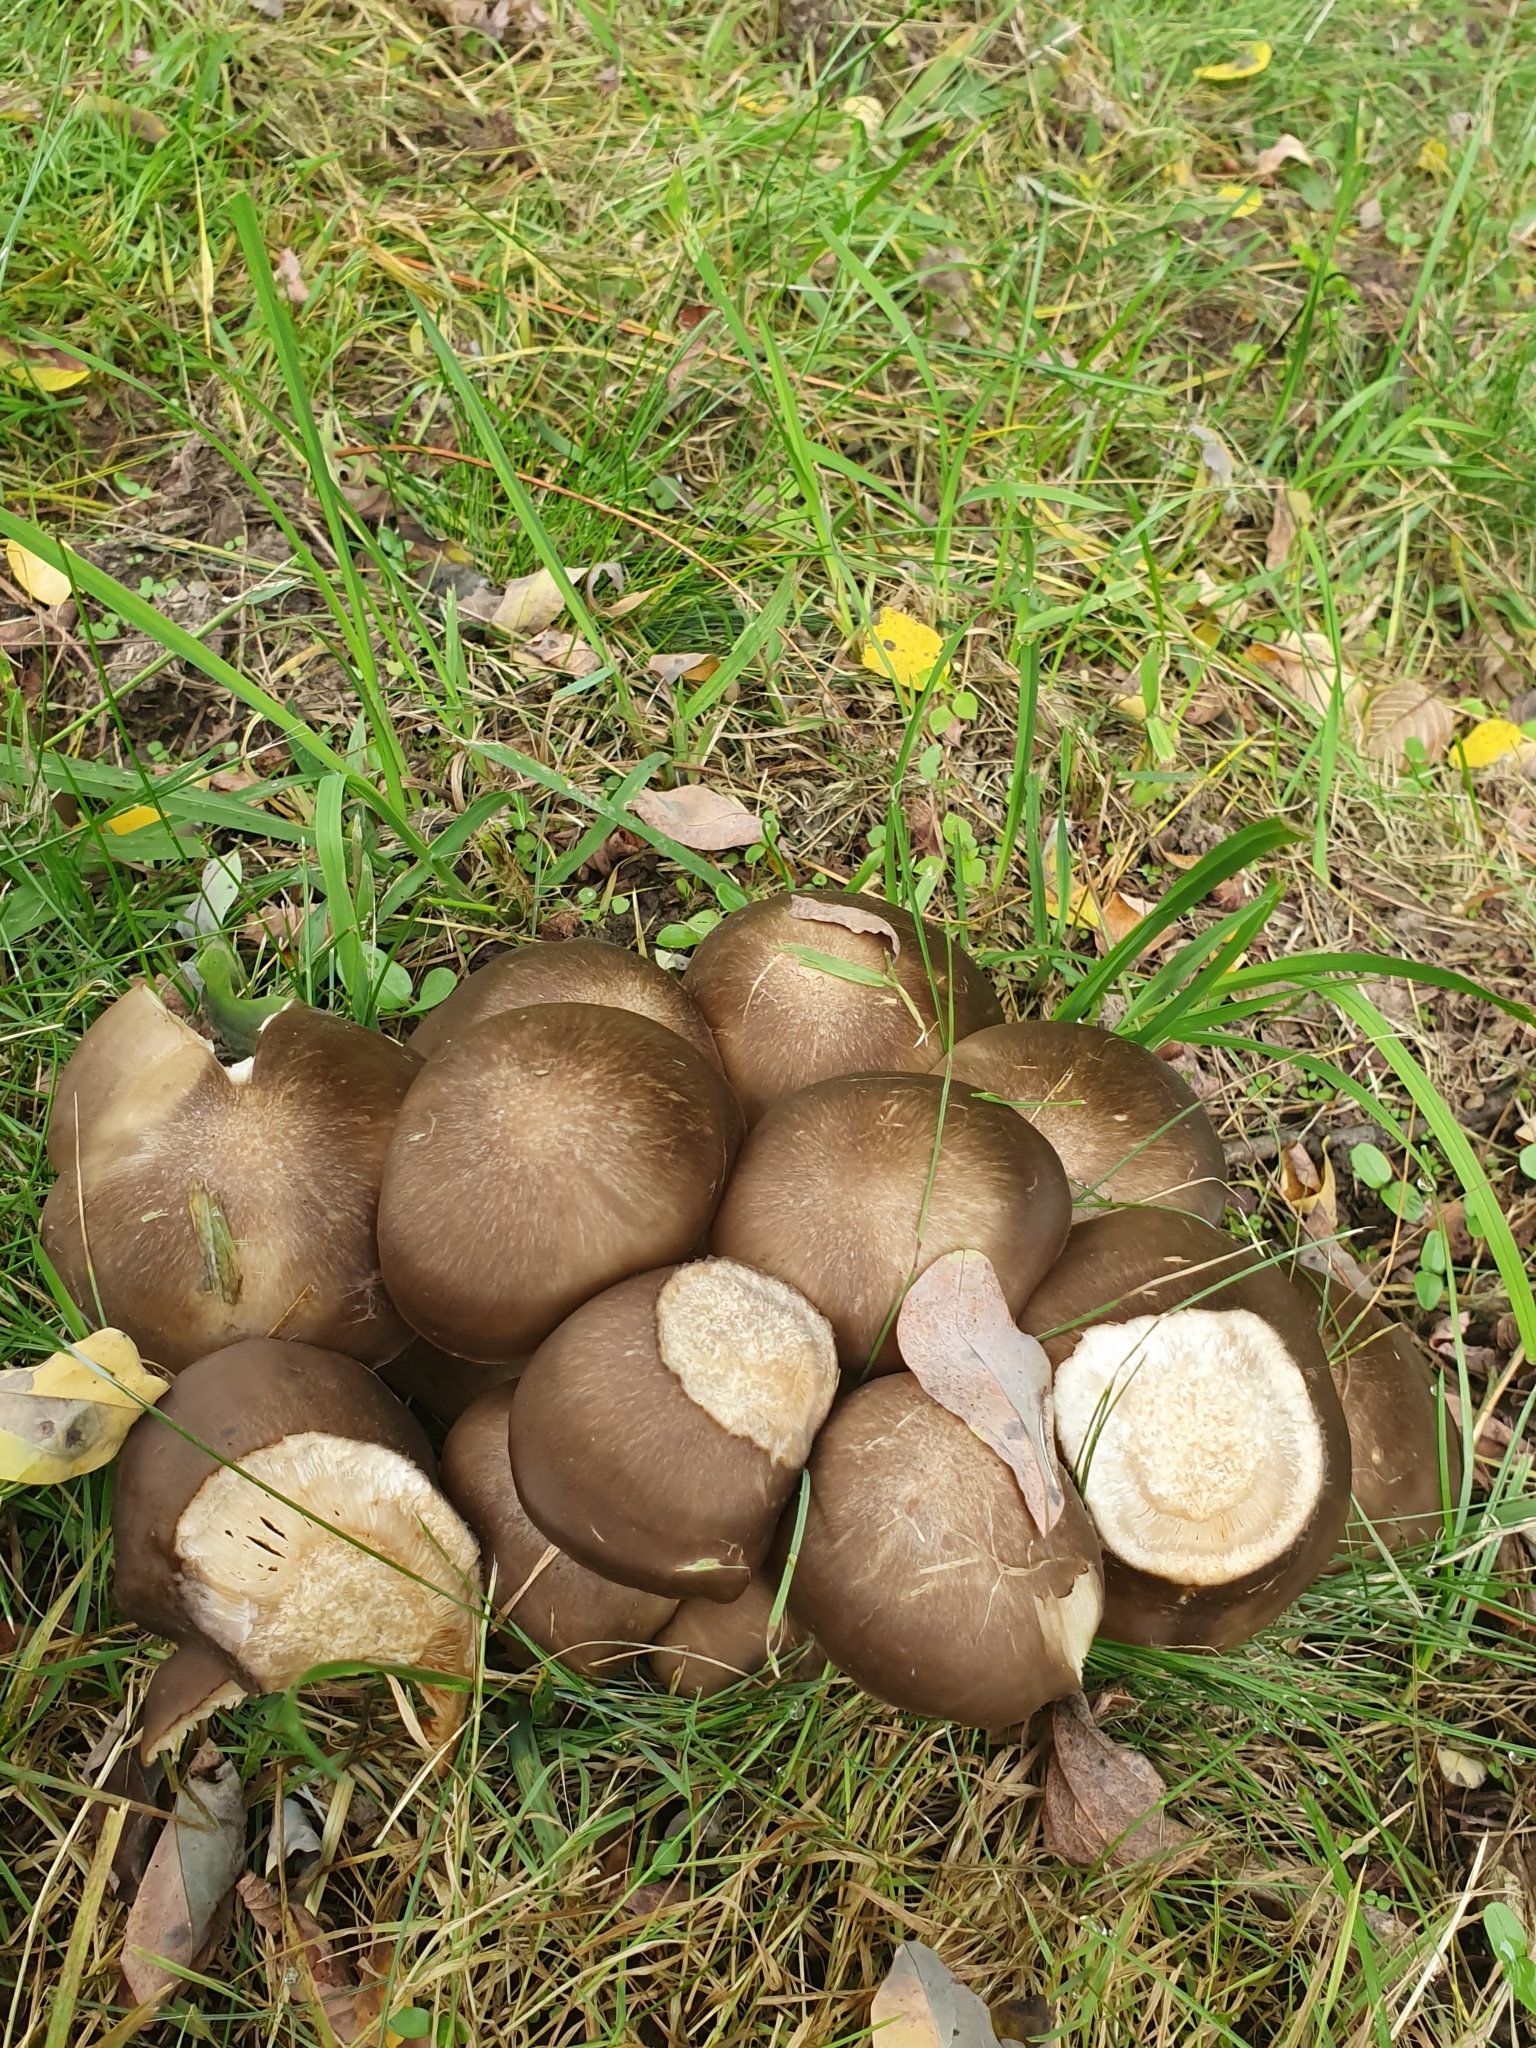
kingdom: Fungi
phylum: Basidiomycota
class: Agaricomycetes
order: Agaricales
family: Lyophyllaceae
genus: Lyophyllum
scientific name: Lyophyllum decastes
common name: Clustered domecap
